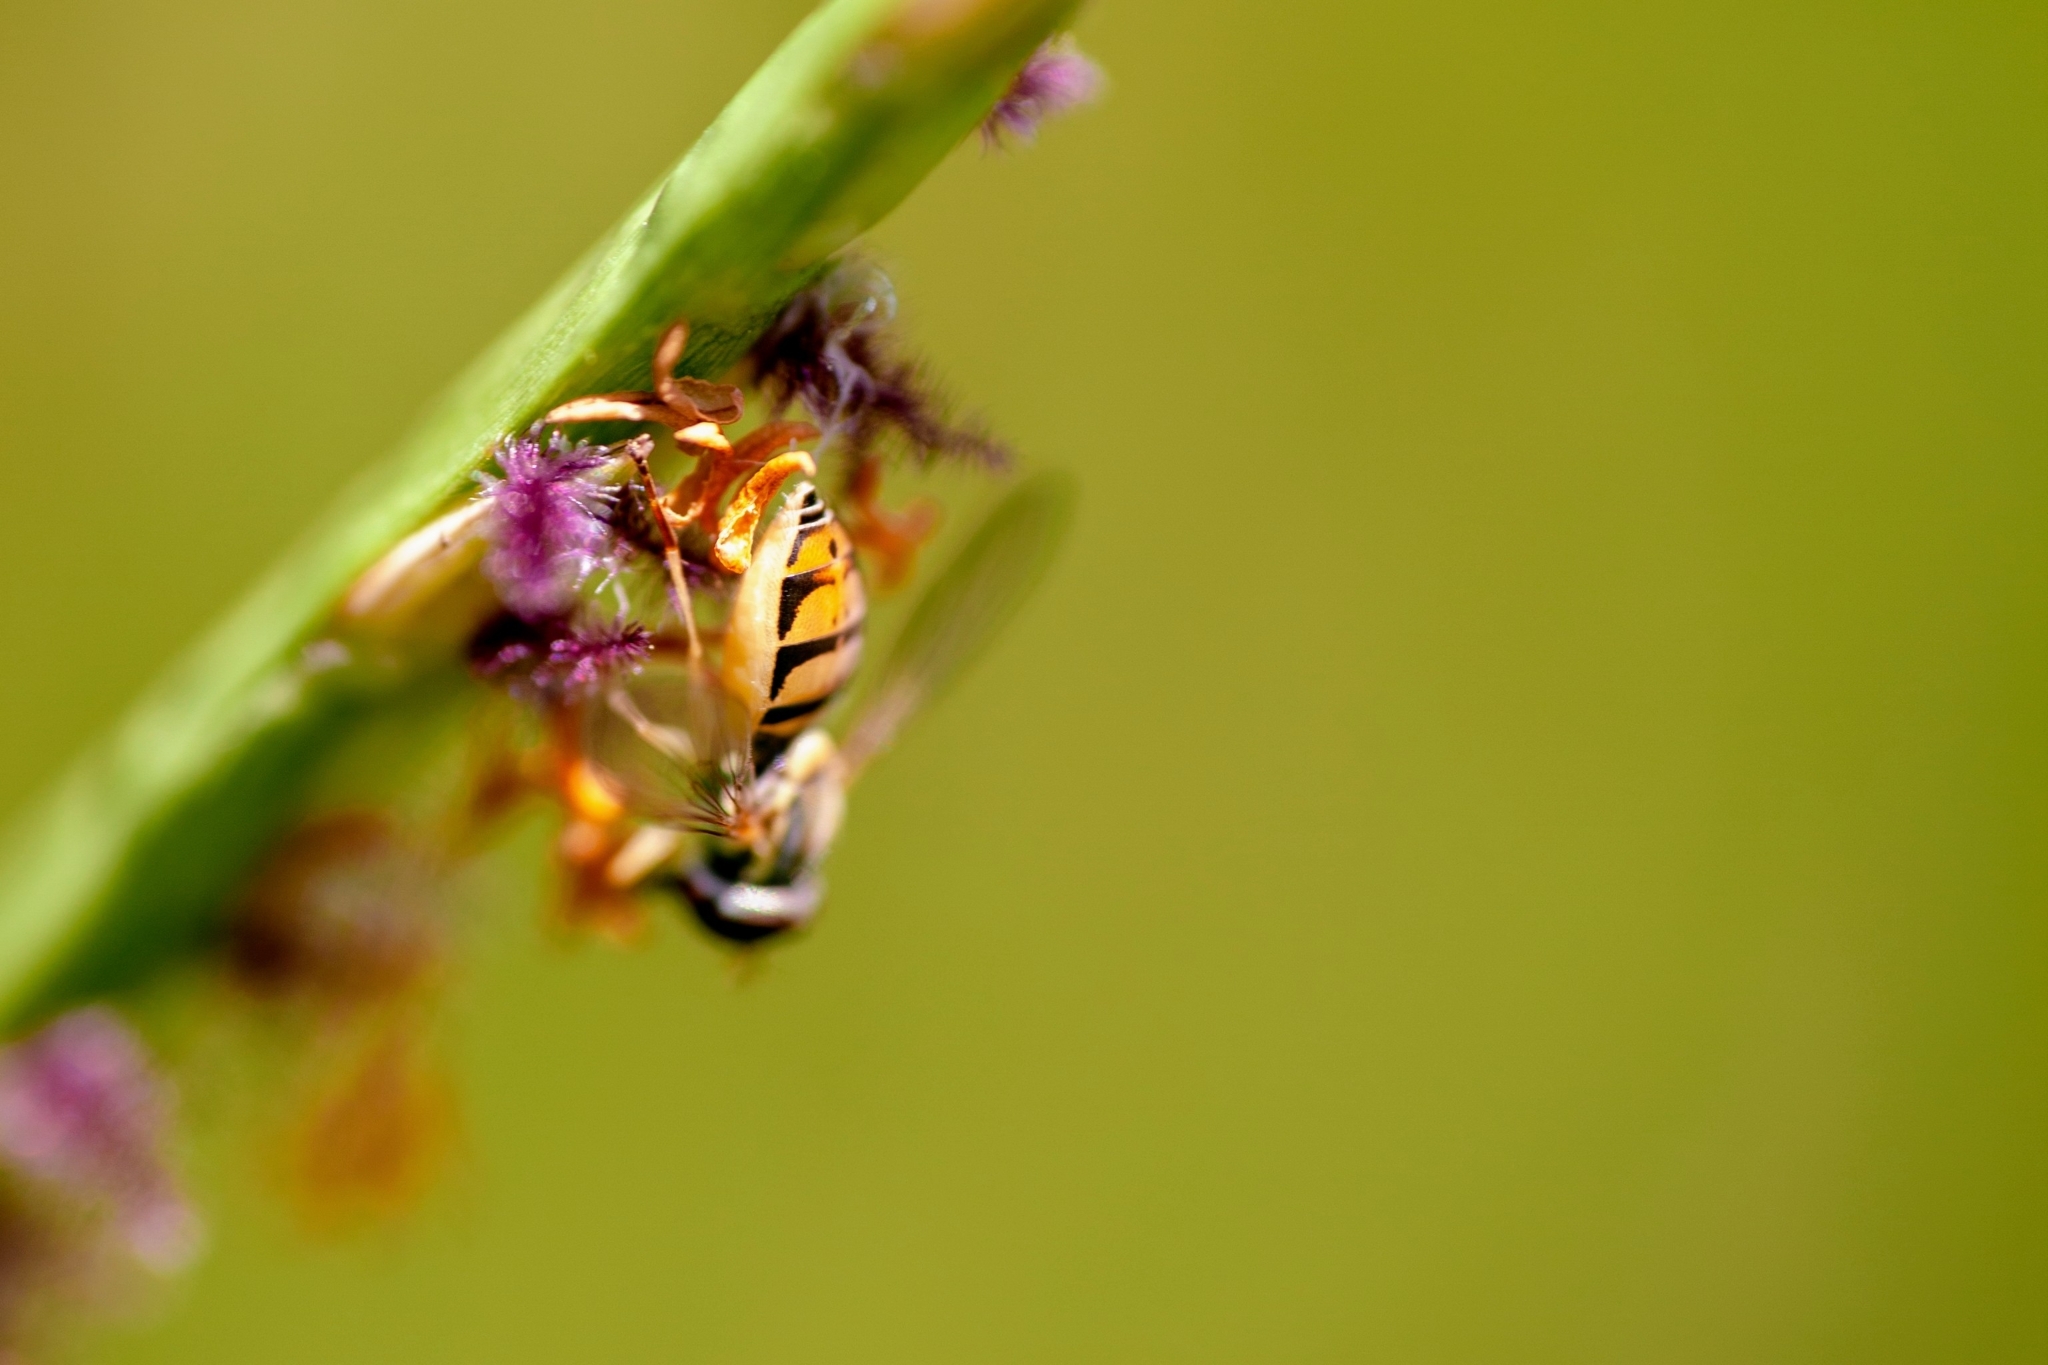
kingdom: Animalia
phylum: Arthropoda
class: Insecta
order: Diptera
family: Syrphidae
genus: Toxomerus
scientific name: Toxomerus marginatus
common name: Syrphid fly
